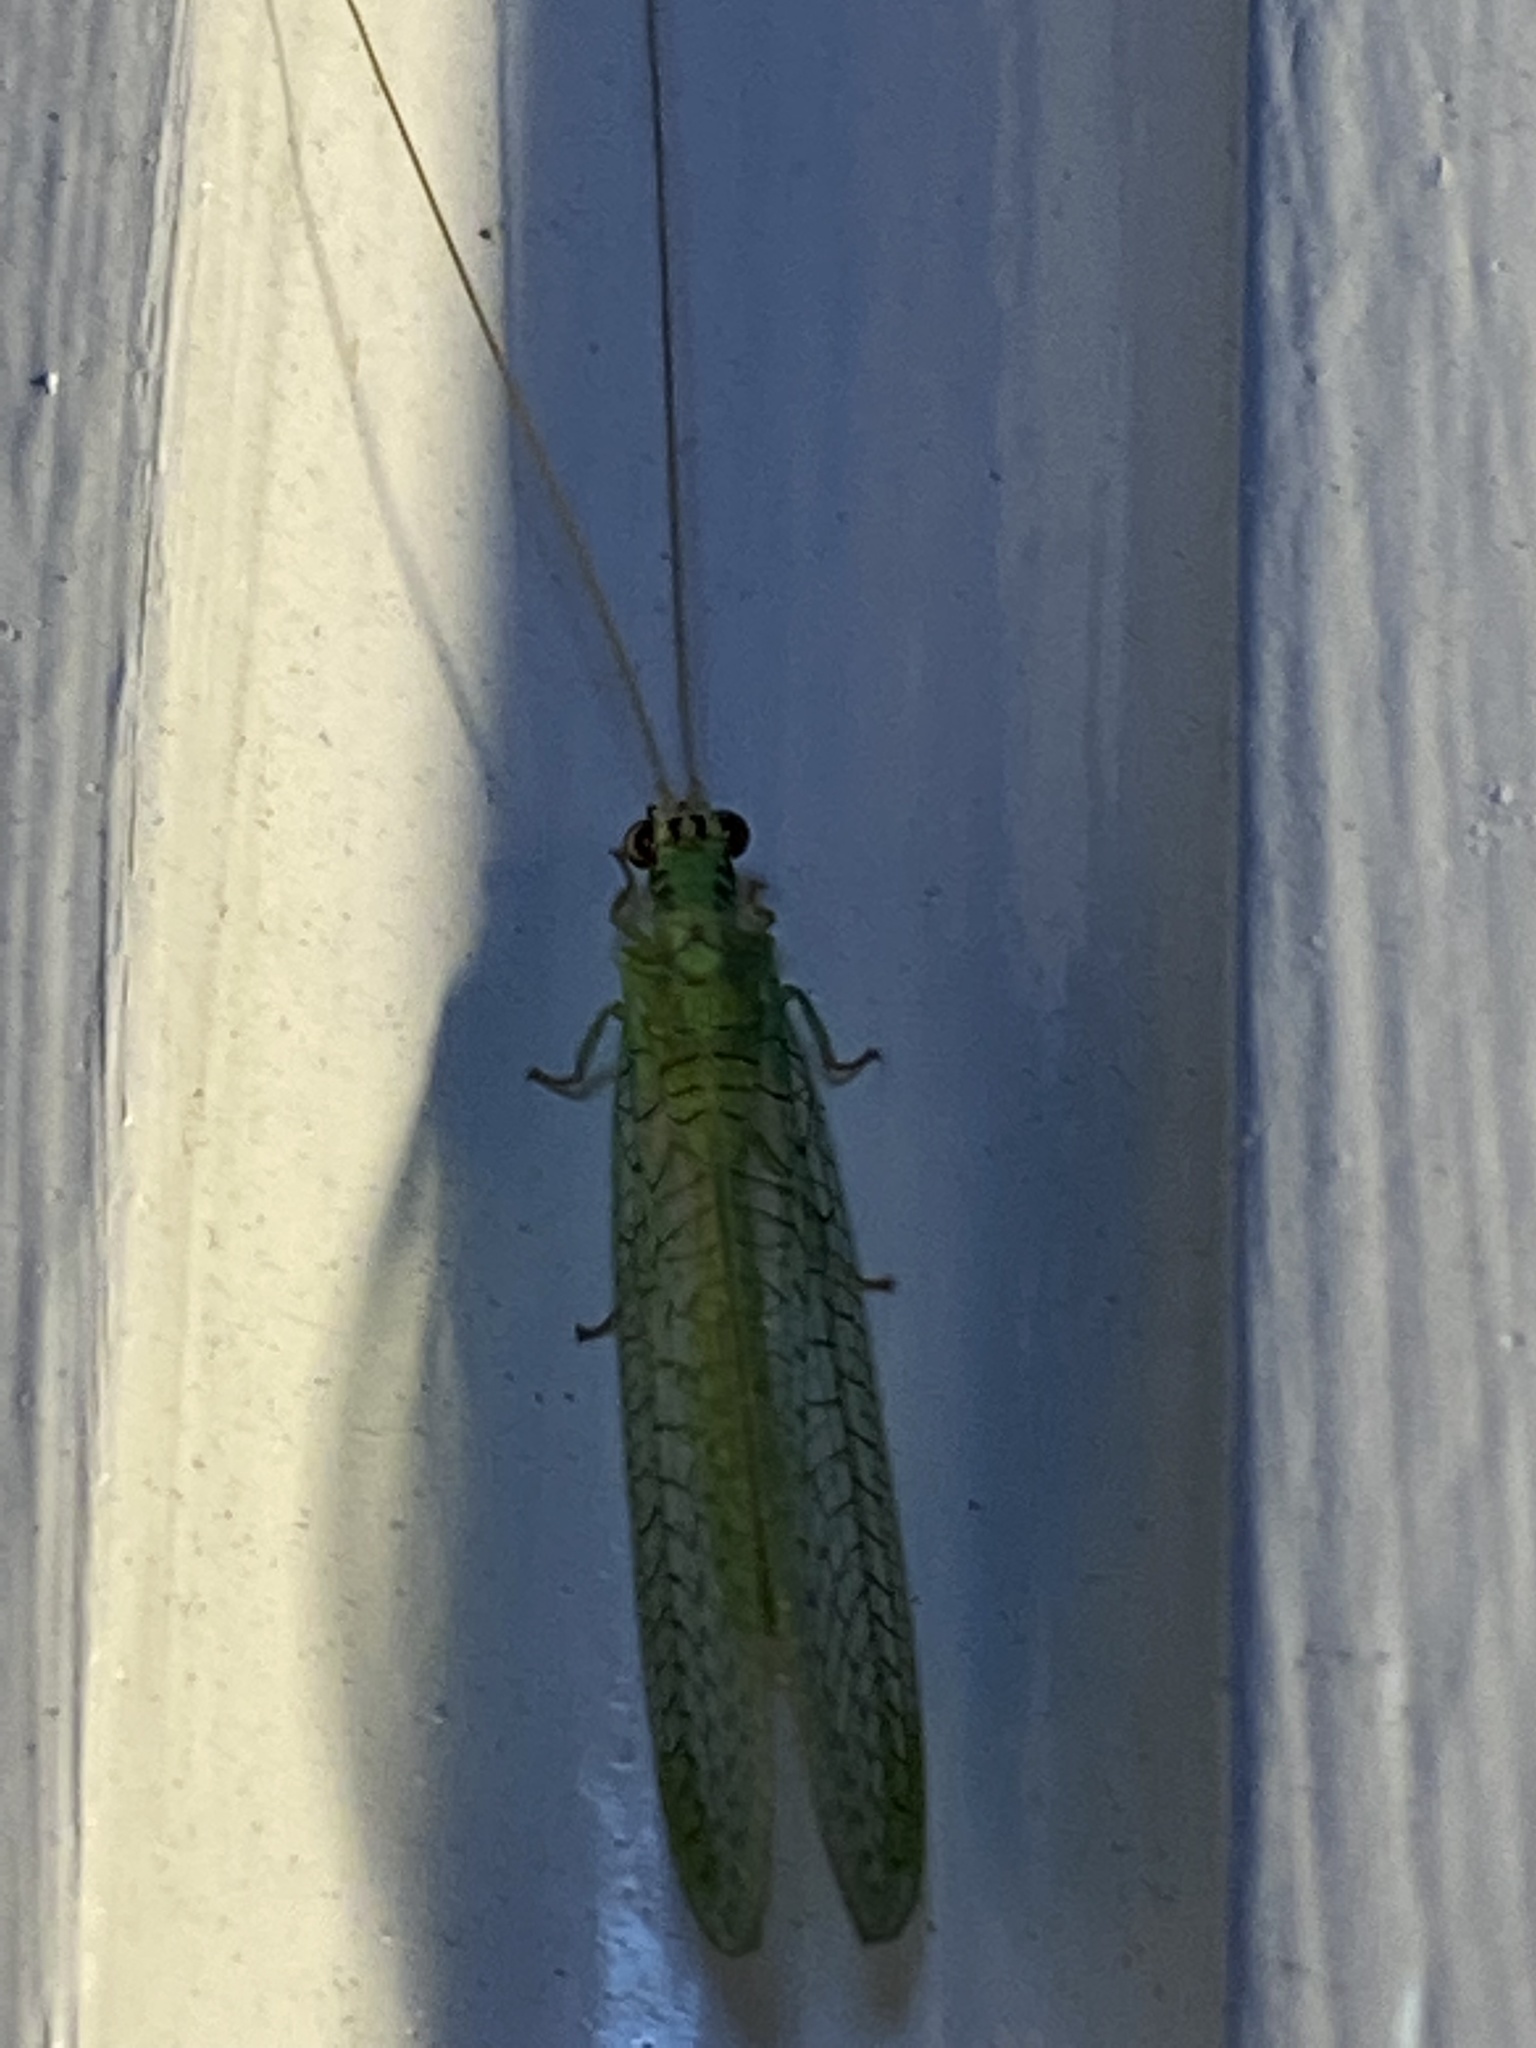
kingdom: Animalia
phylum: Arthropoda
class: Insecta
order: Neuroptera
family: Chrysopidae
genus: Chrysopa
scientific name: Chrysopa incompleta
